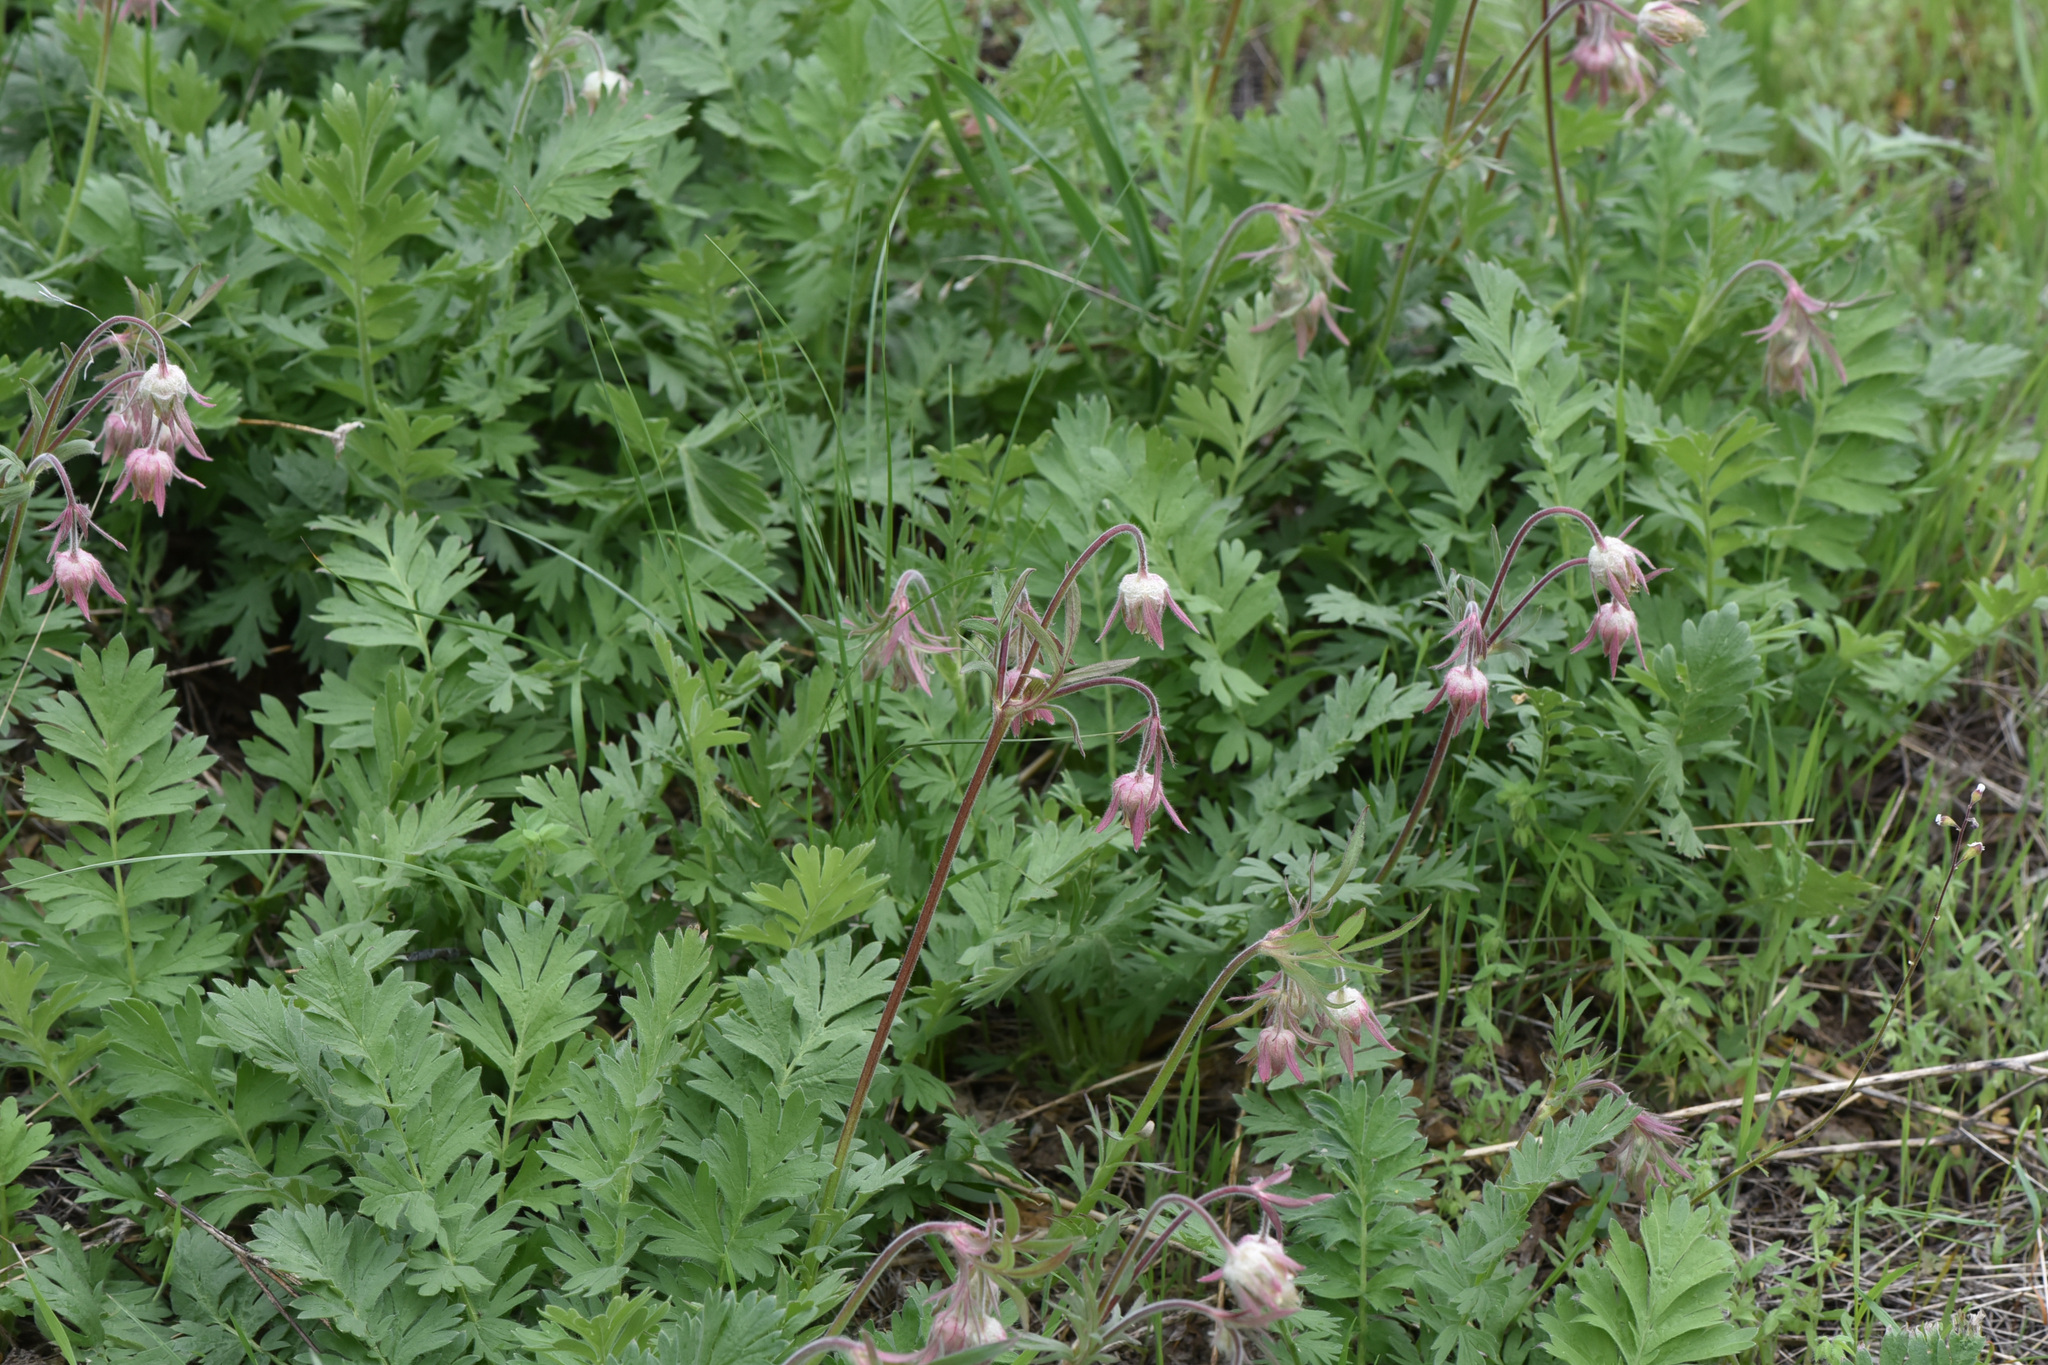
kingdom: Plantae
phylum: Tracheophyta
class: Magnoliopsida
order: Rosales
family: Rosaceae
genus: Geum
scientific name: Geum triflorum
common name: Old man's whiskers
